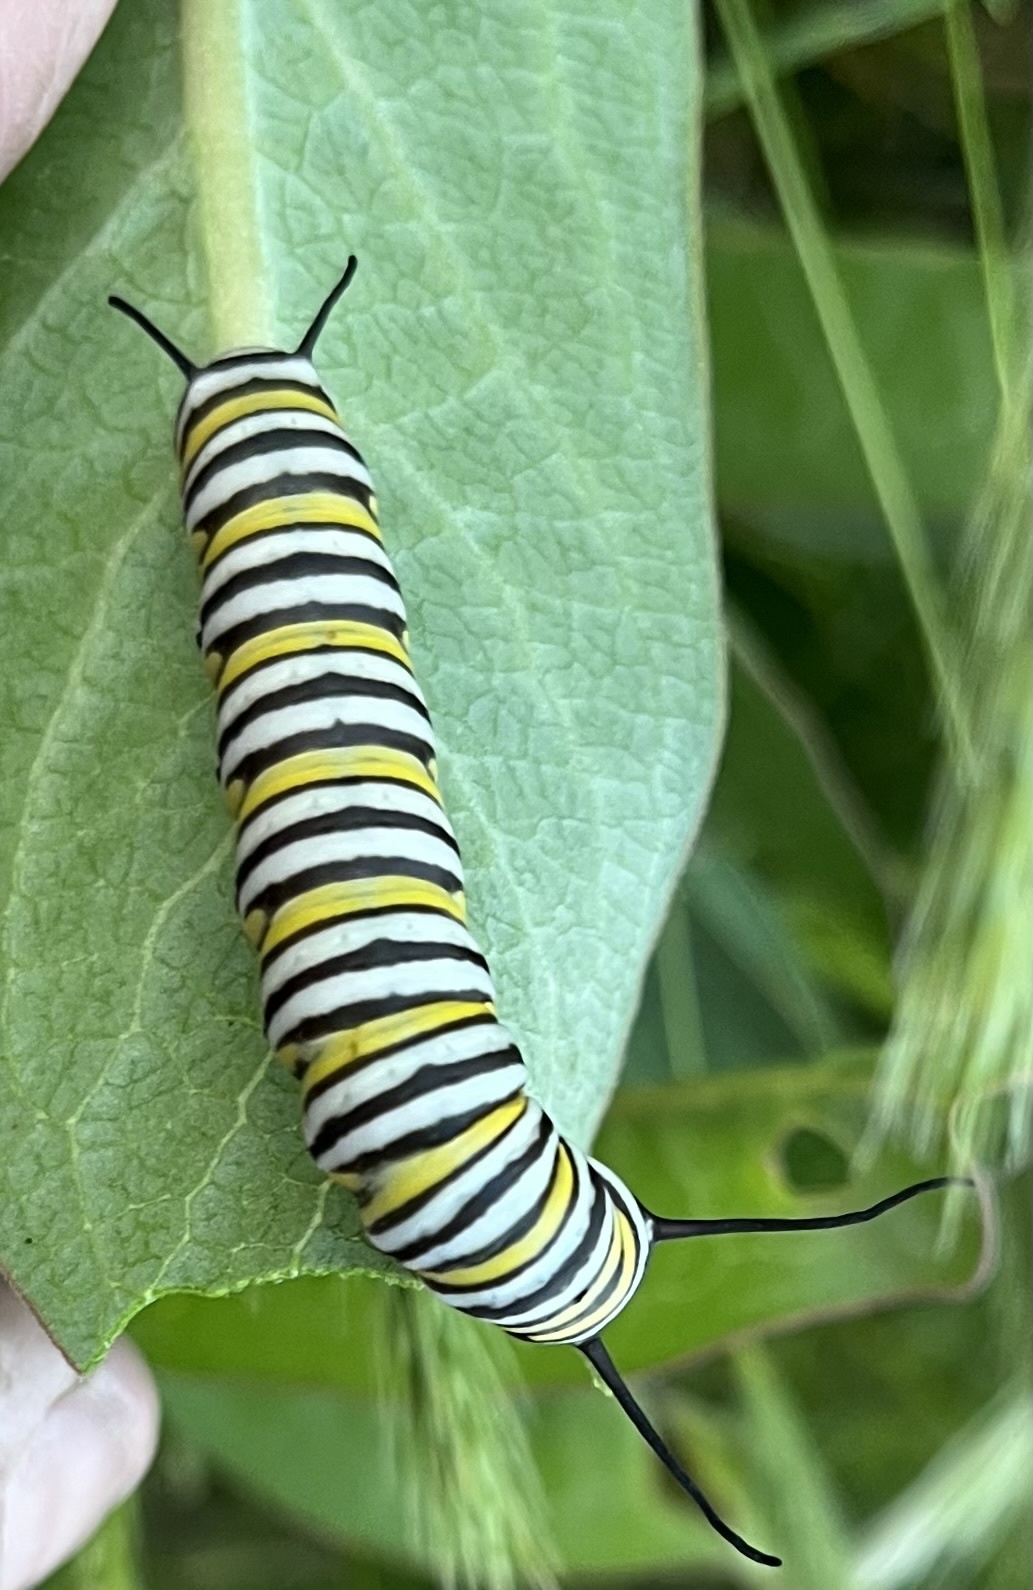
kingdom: Animalia
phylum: Arthropoda
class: Insecta
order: Lepidoptera
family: Nymphalidae
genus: Danaus
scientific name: Danaus plexippus
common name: Monarch
